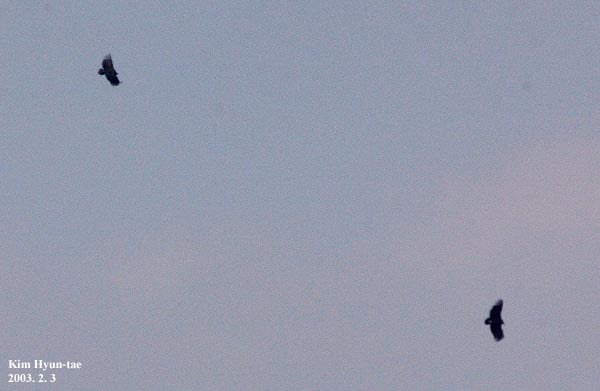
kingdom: Animalia
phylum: Chordata
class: Aves
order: Accipitriformes
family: Accipitridae
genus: Aegypius
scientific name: Aegypius monachus
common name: Cinereous vulture
